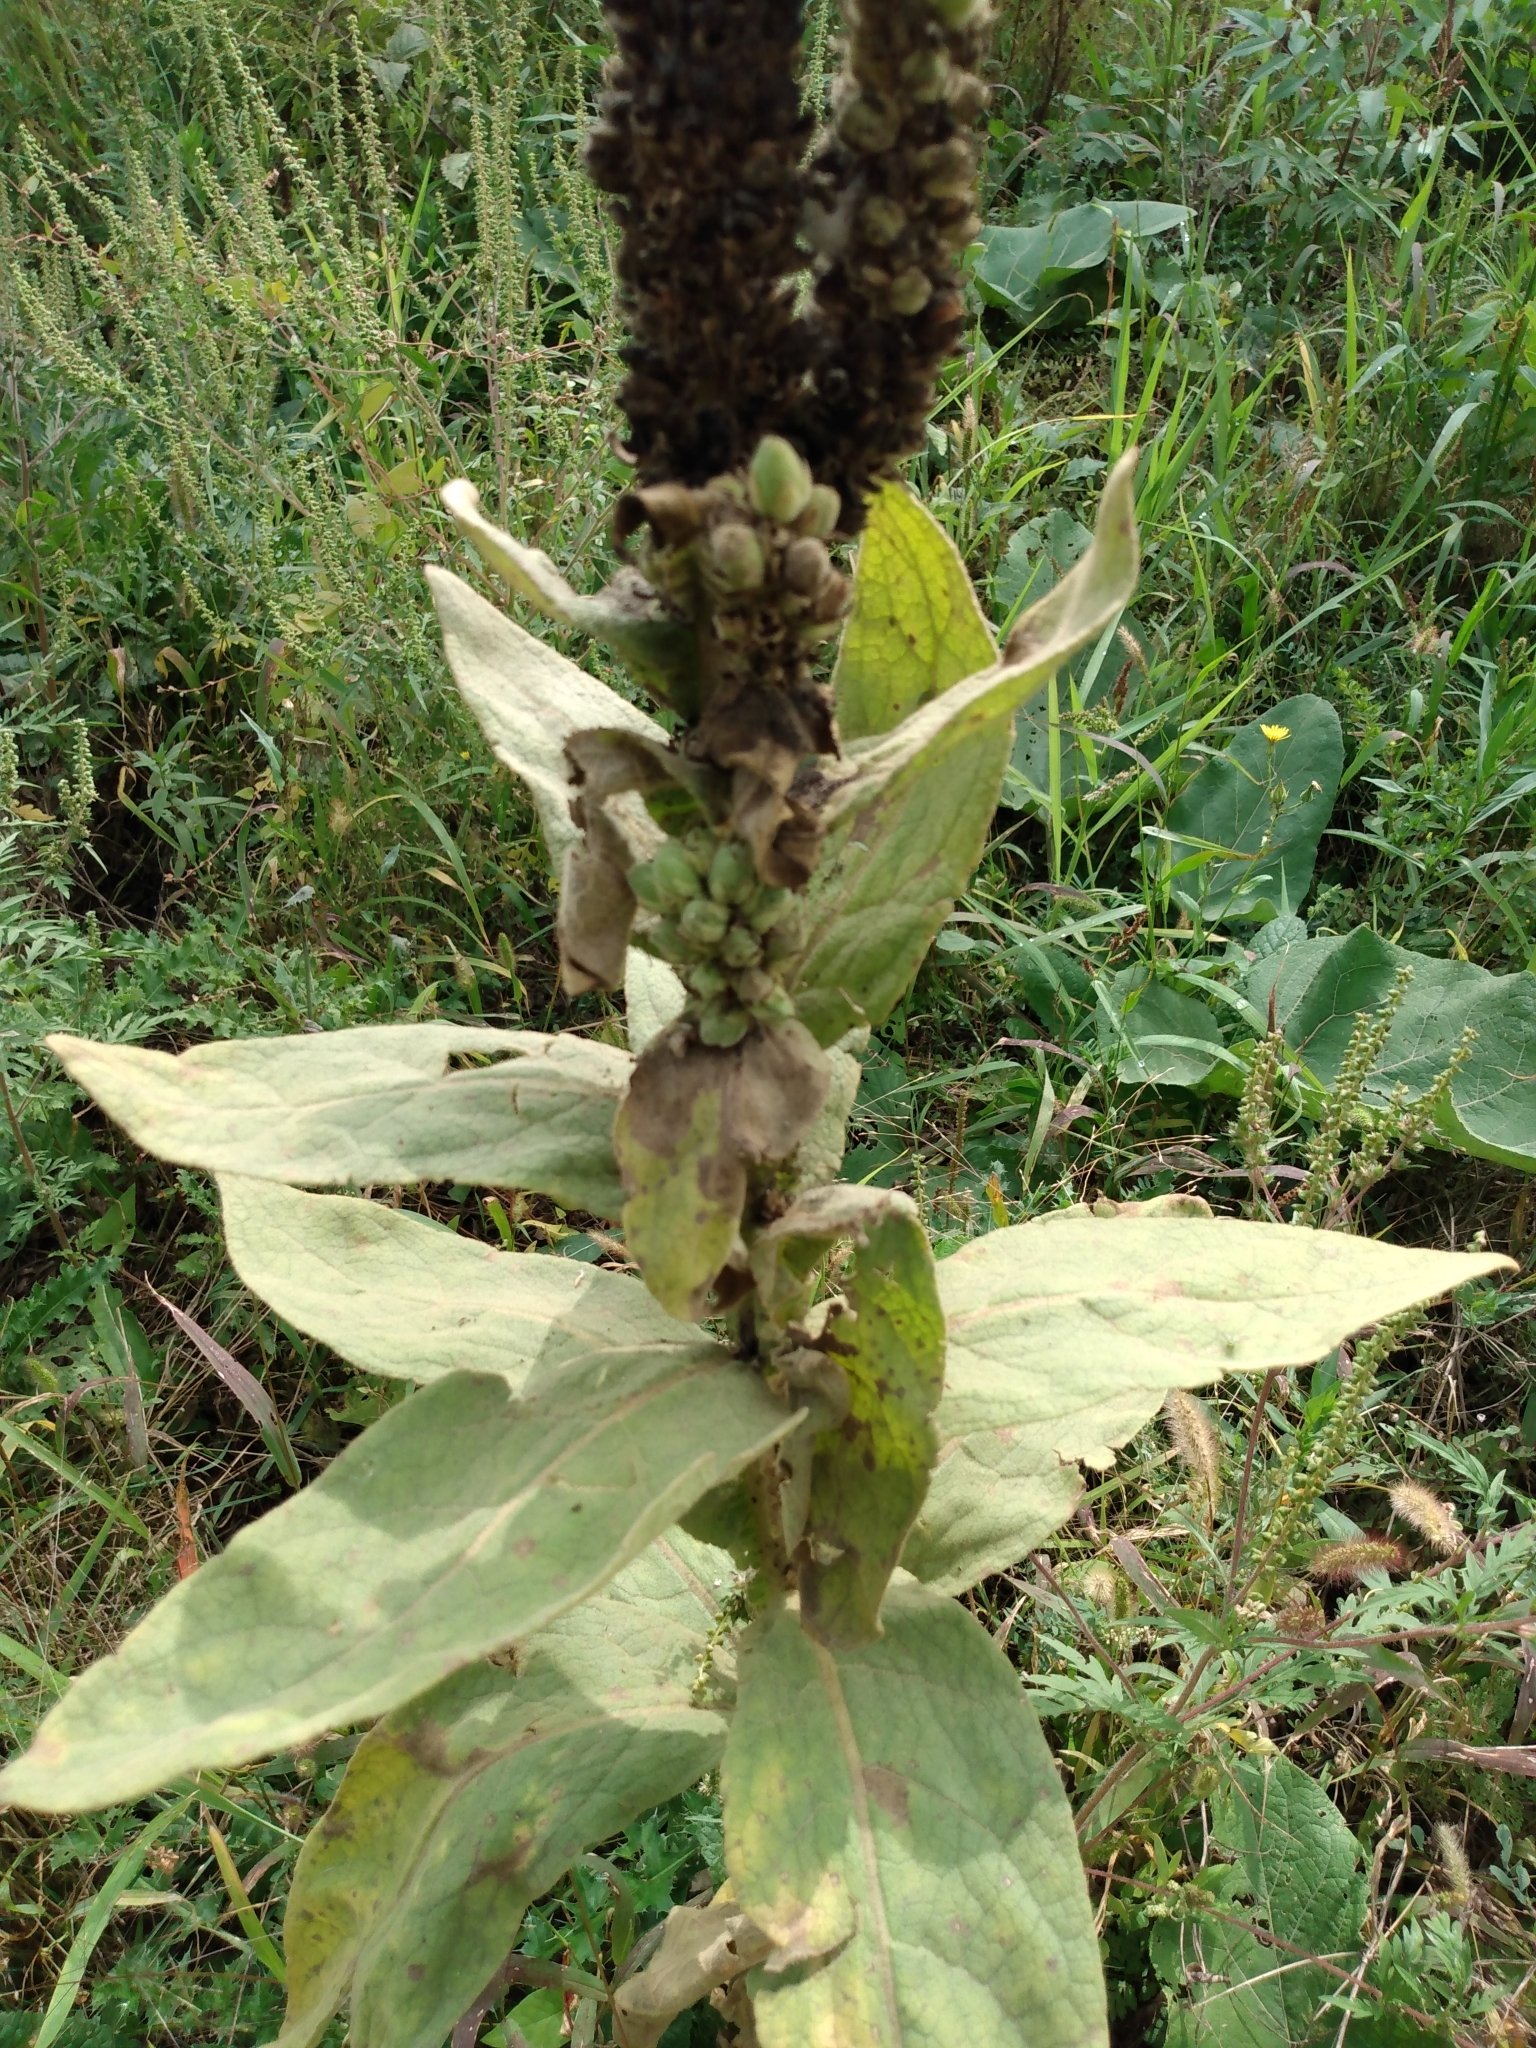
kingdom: Plantae
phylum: Tracheophyta
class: Magnoliopsida
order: Lamiales
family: Scrophulariaceae
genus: Verbascum
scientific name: Verbascum thapsus
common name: Common mullein
